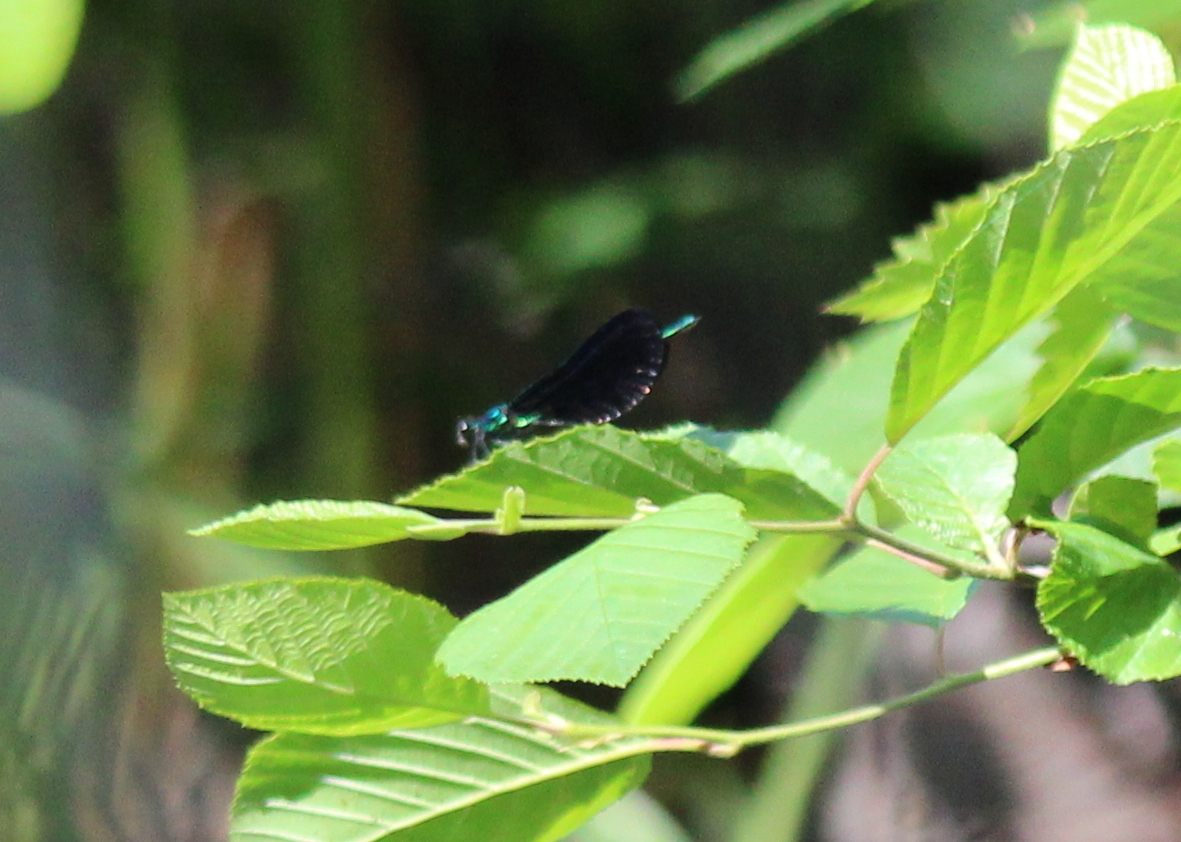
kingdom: Animalia
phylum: Arthropoda
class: Insecta
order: Odonata
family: Calopterygidae
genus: Calopteryx
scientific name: Calopteryx maculata
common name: Ebony jewelwing
